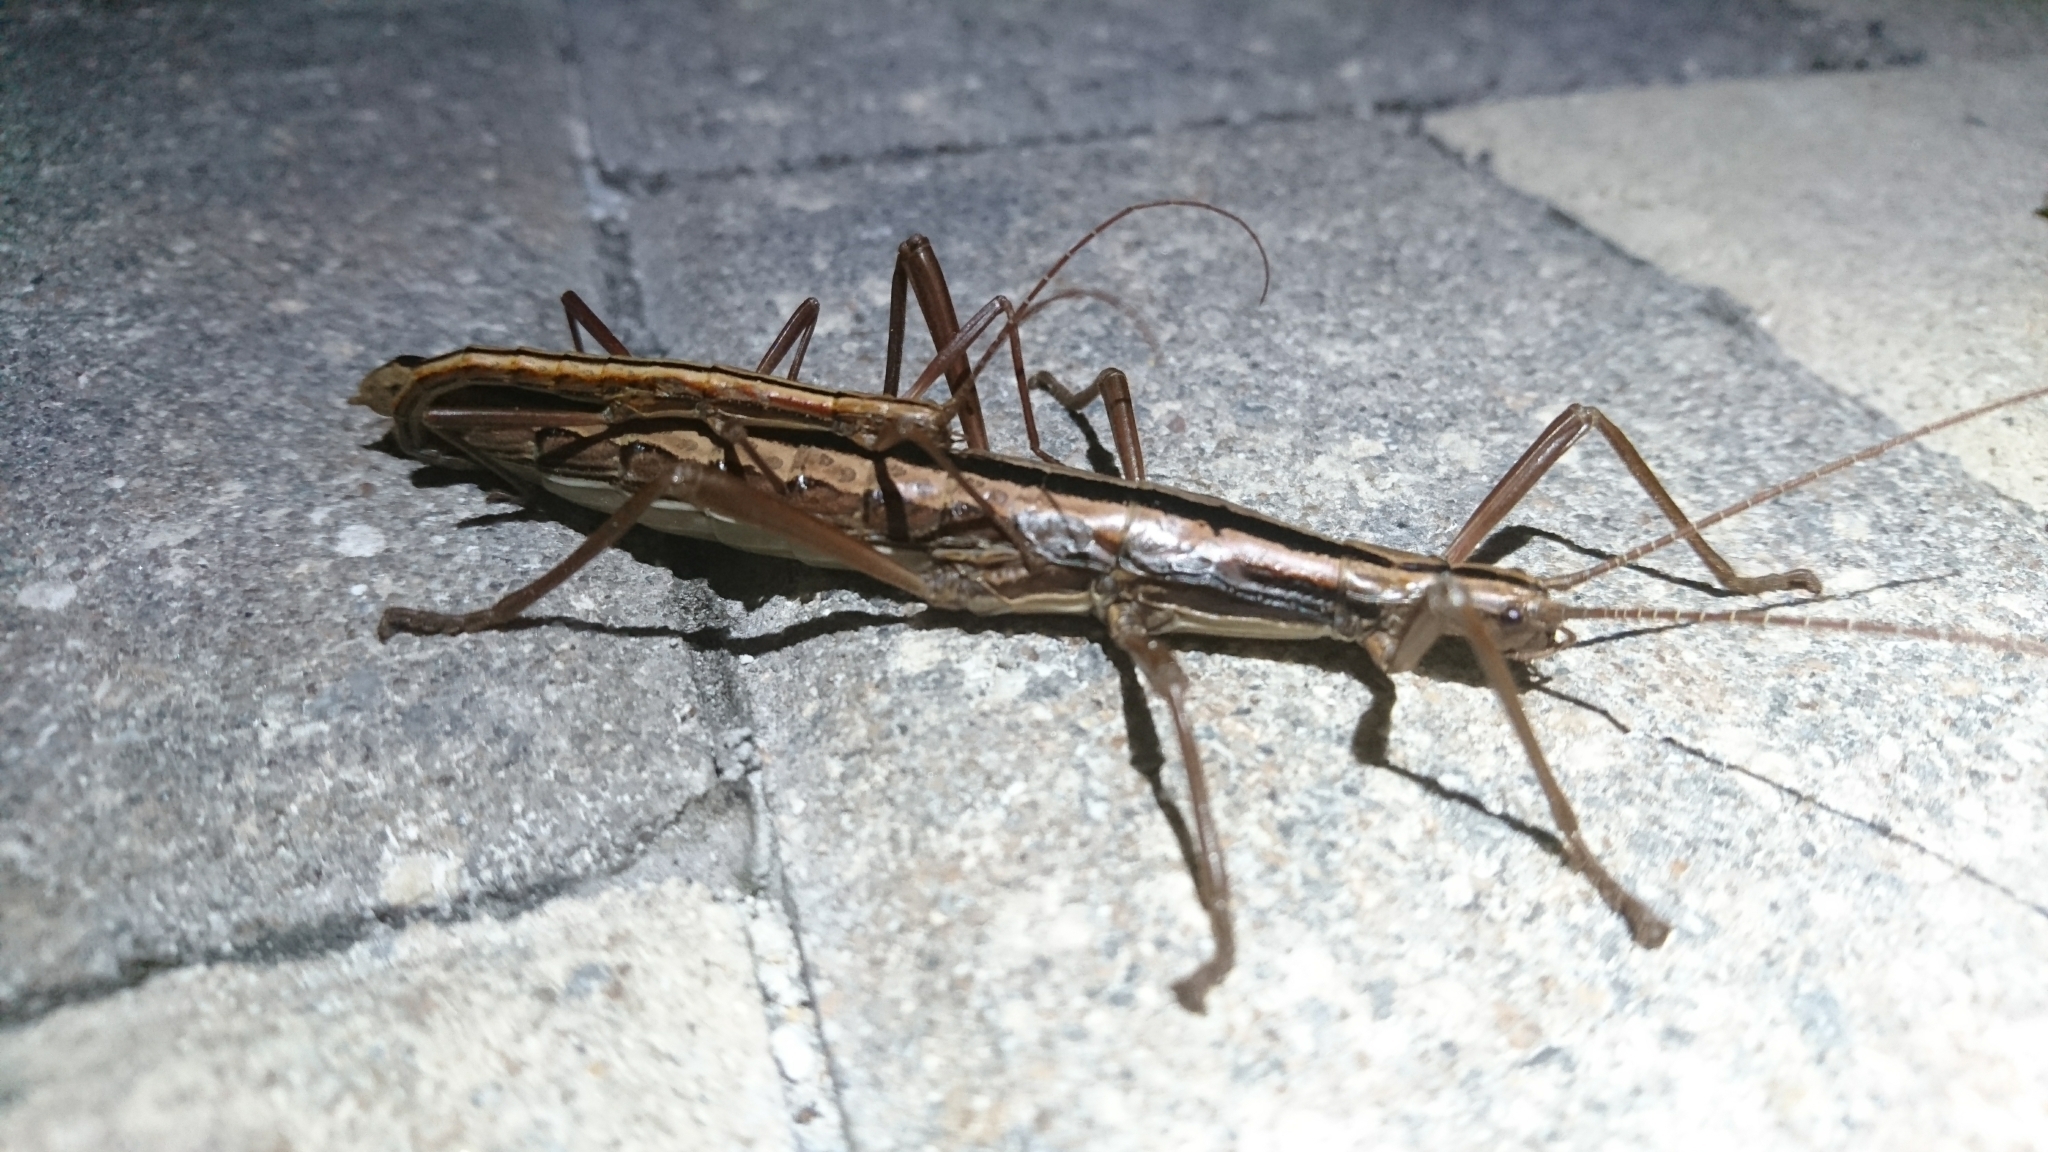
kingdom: Animalia
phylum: Arthropoda
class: Insecta
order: Phasmida
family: Pseudophasmatidae
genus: Anisomorpha
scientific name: Anisomorpha buprestoides
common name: Florida stick insect
